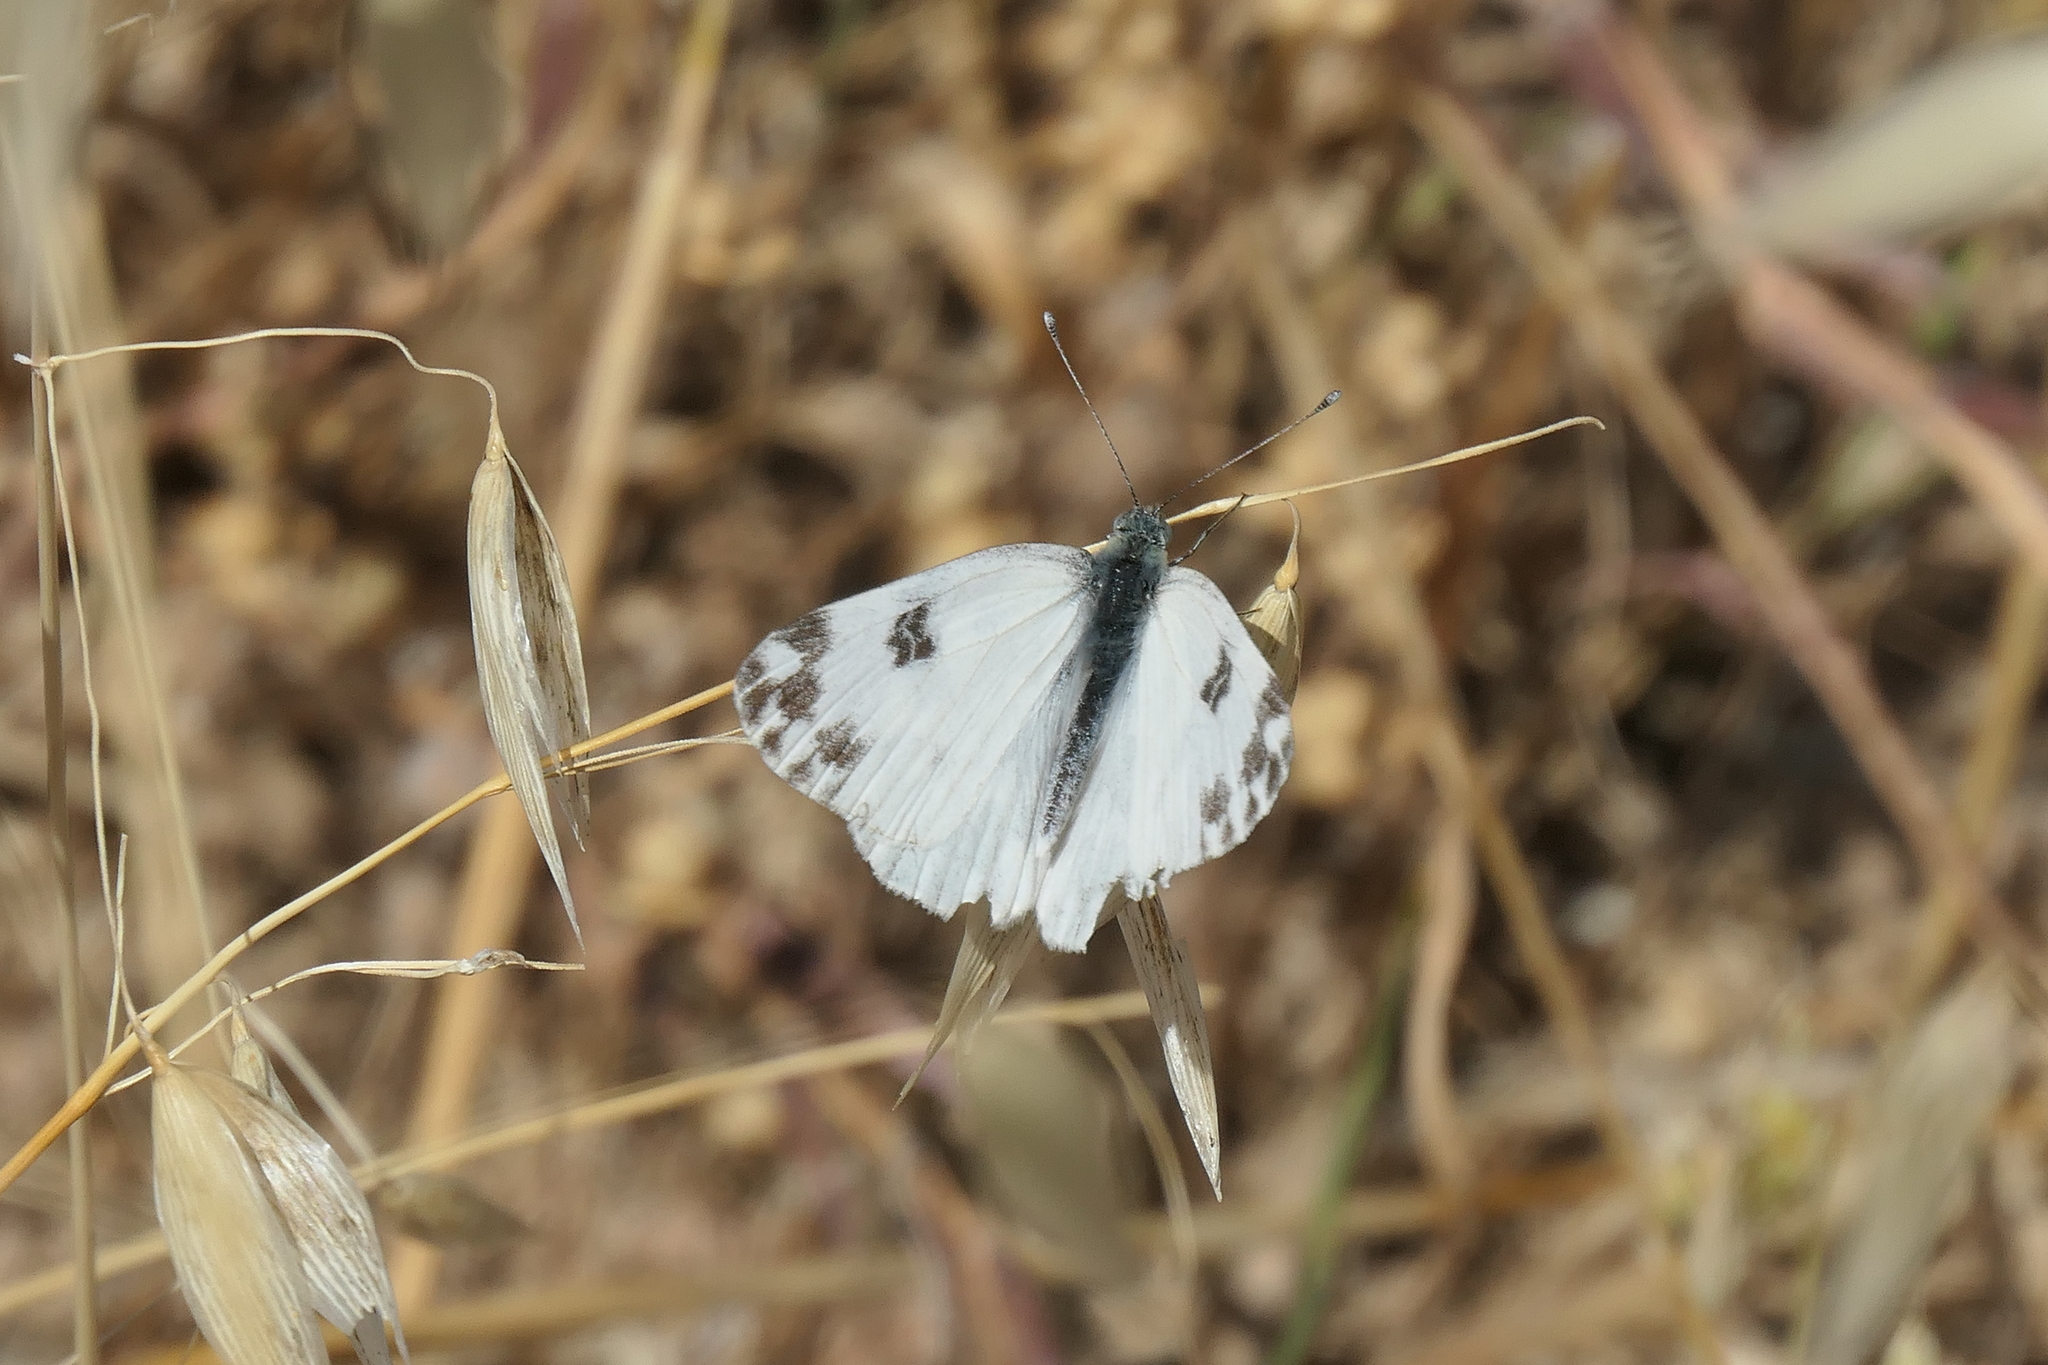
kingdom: Animalia
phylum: Arthropoda
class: Insecta
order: Lepidoptera
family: Pieridae
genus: Pontia
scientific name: Pontia edusa
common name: Eastern bath white
